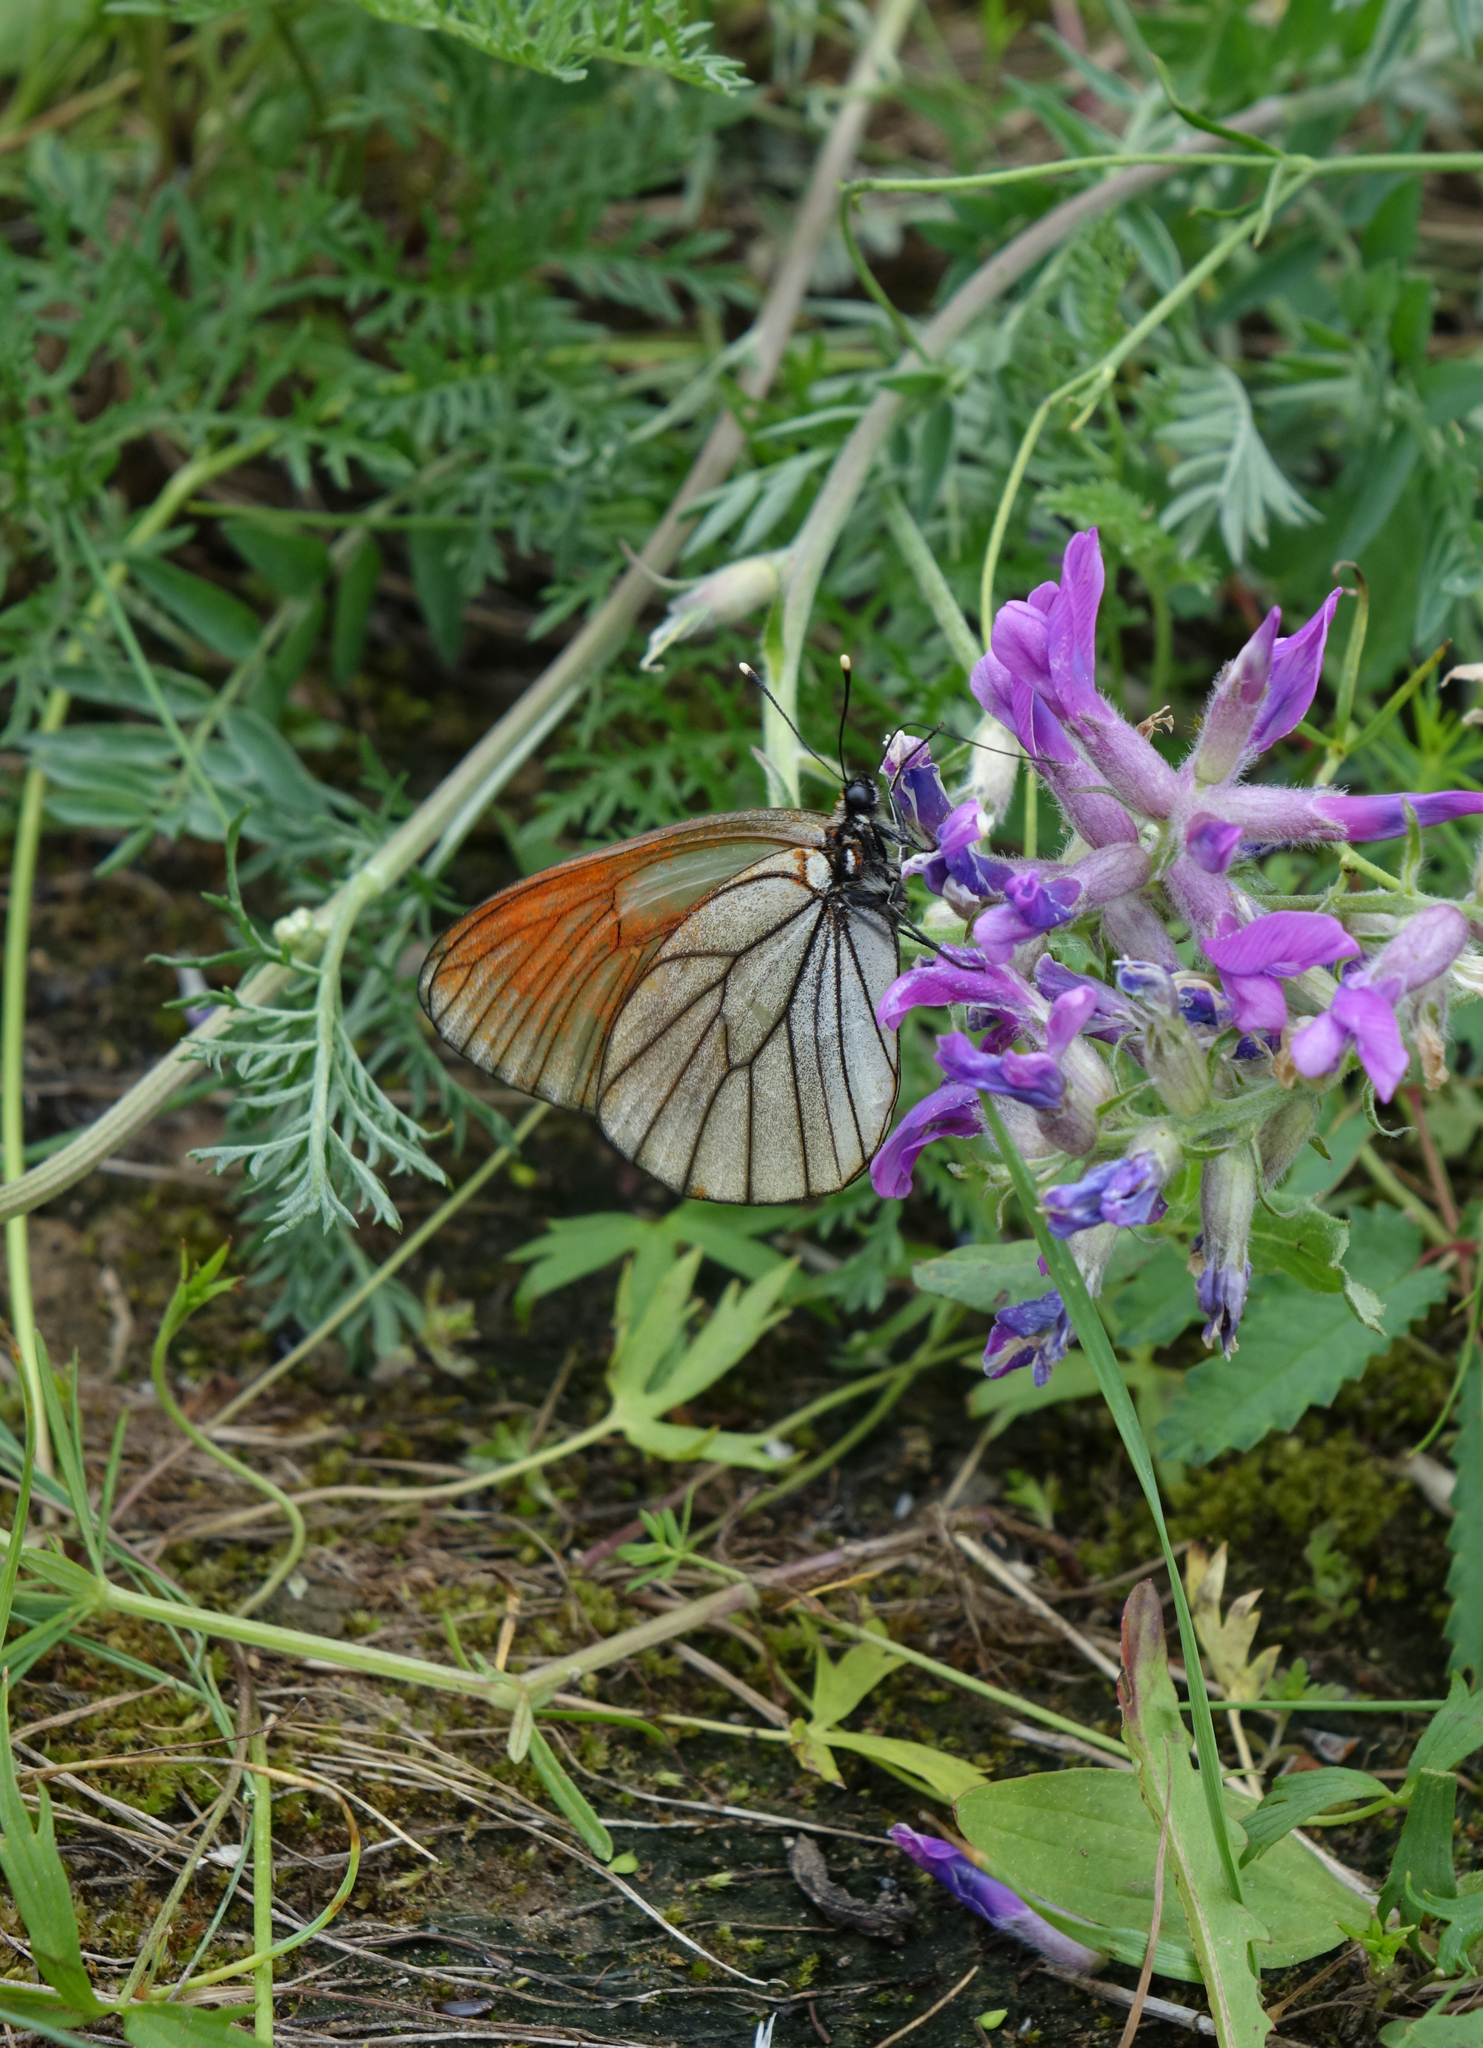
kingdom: Animalia
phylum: Arthropoda
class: Insecta
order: Lepidoptera
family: Pieridae
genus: Aporia
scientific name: Aporia crataegi
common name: Black-veined white
